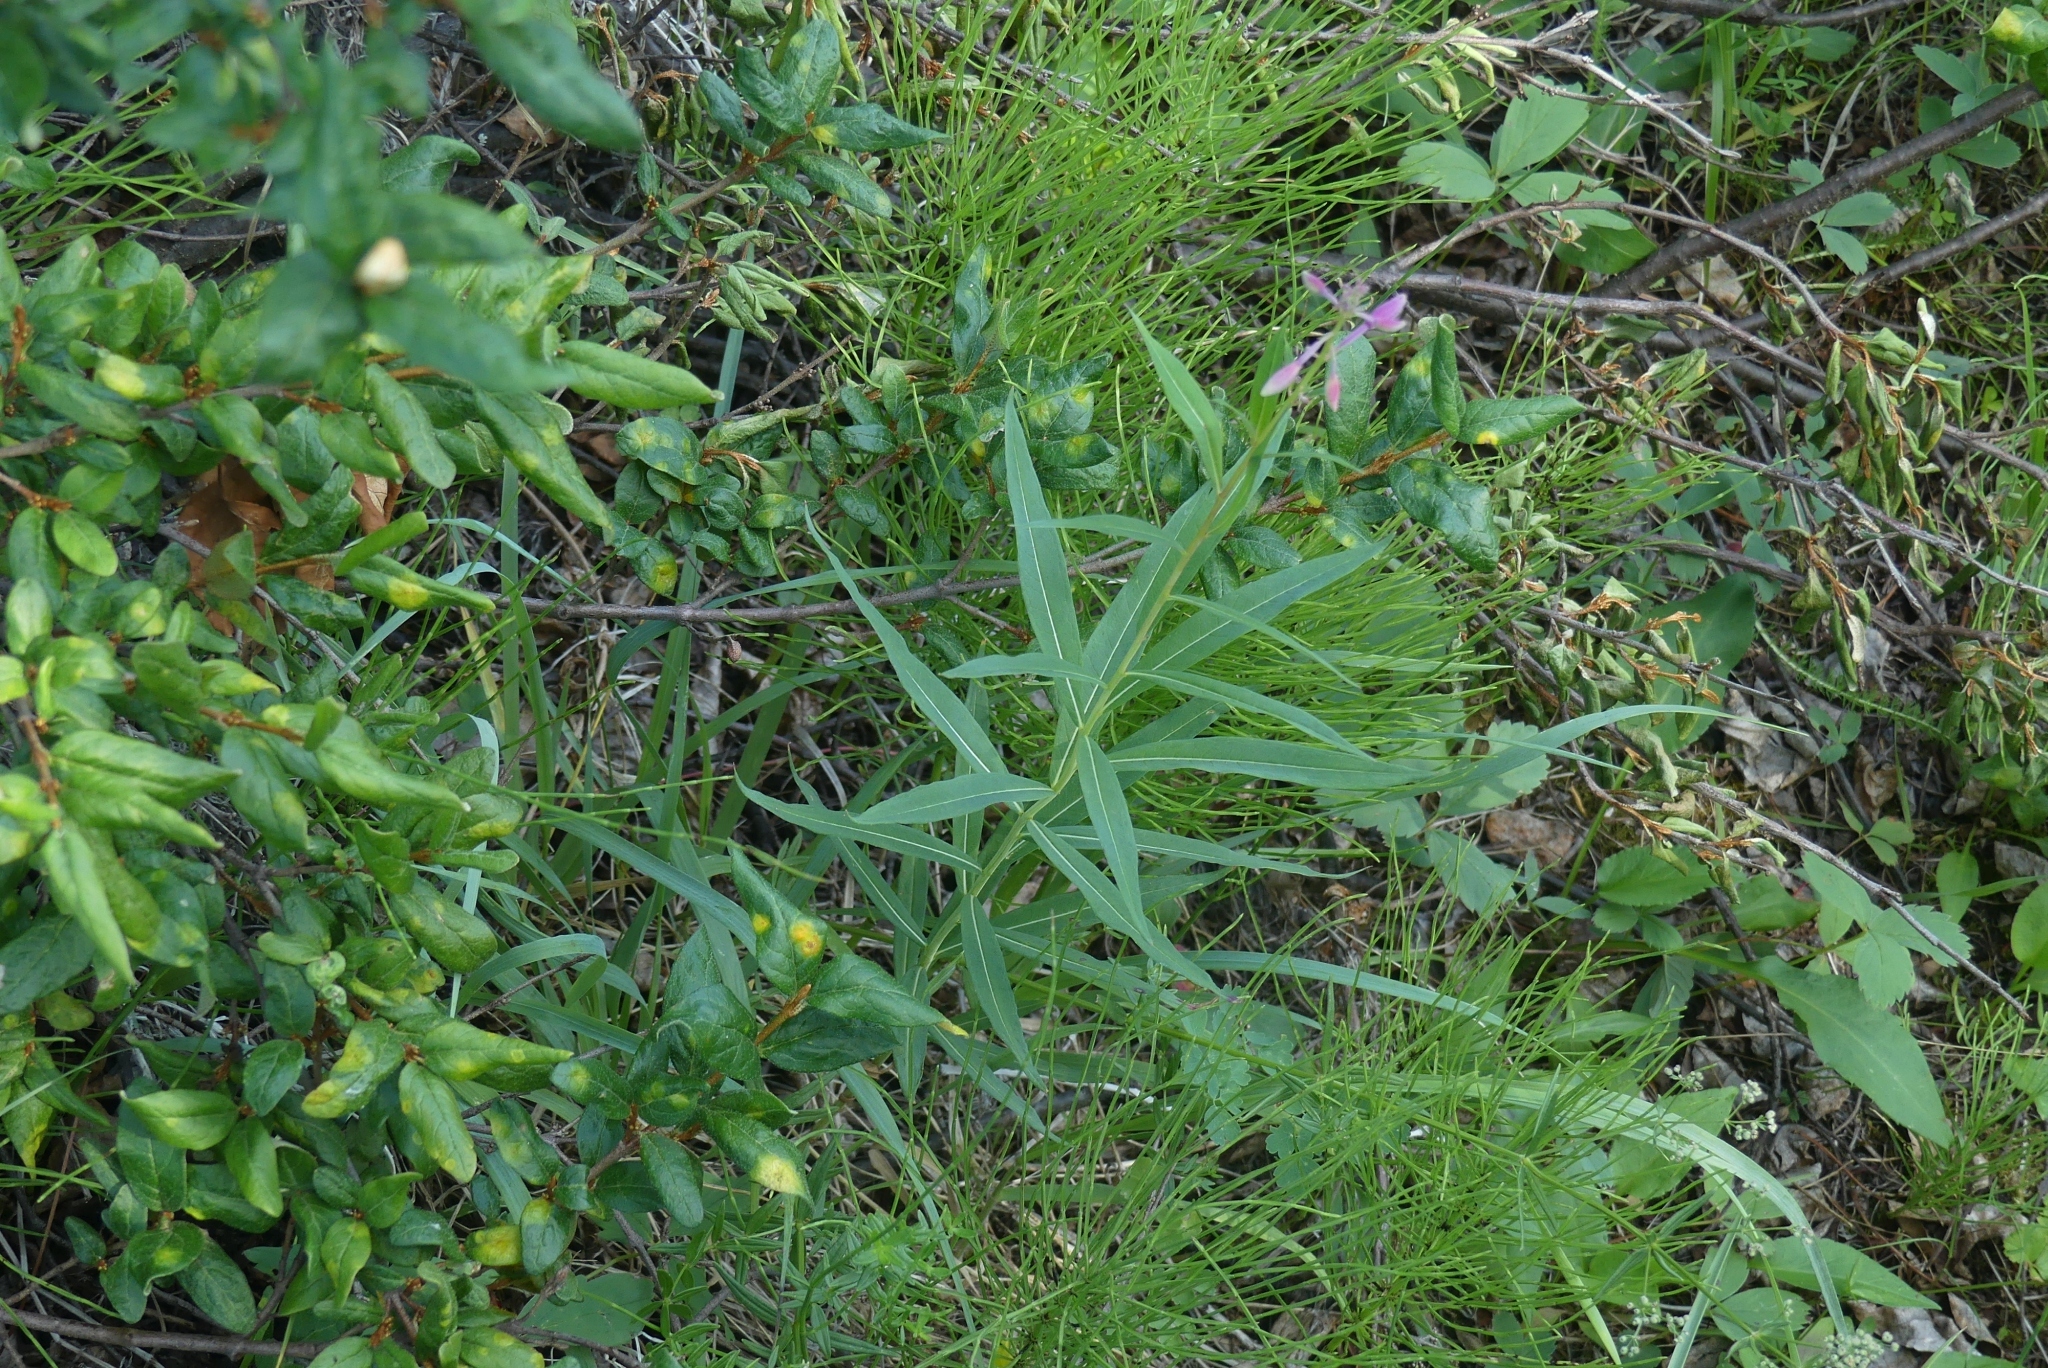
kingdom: Plantae
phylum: Tracheophyta
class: Magnoliopsida
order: Myrtales
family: Onagraceae
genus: Chamaenerion
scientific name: Chamaenerion angustifolium
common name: Fireweed
